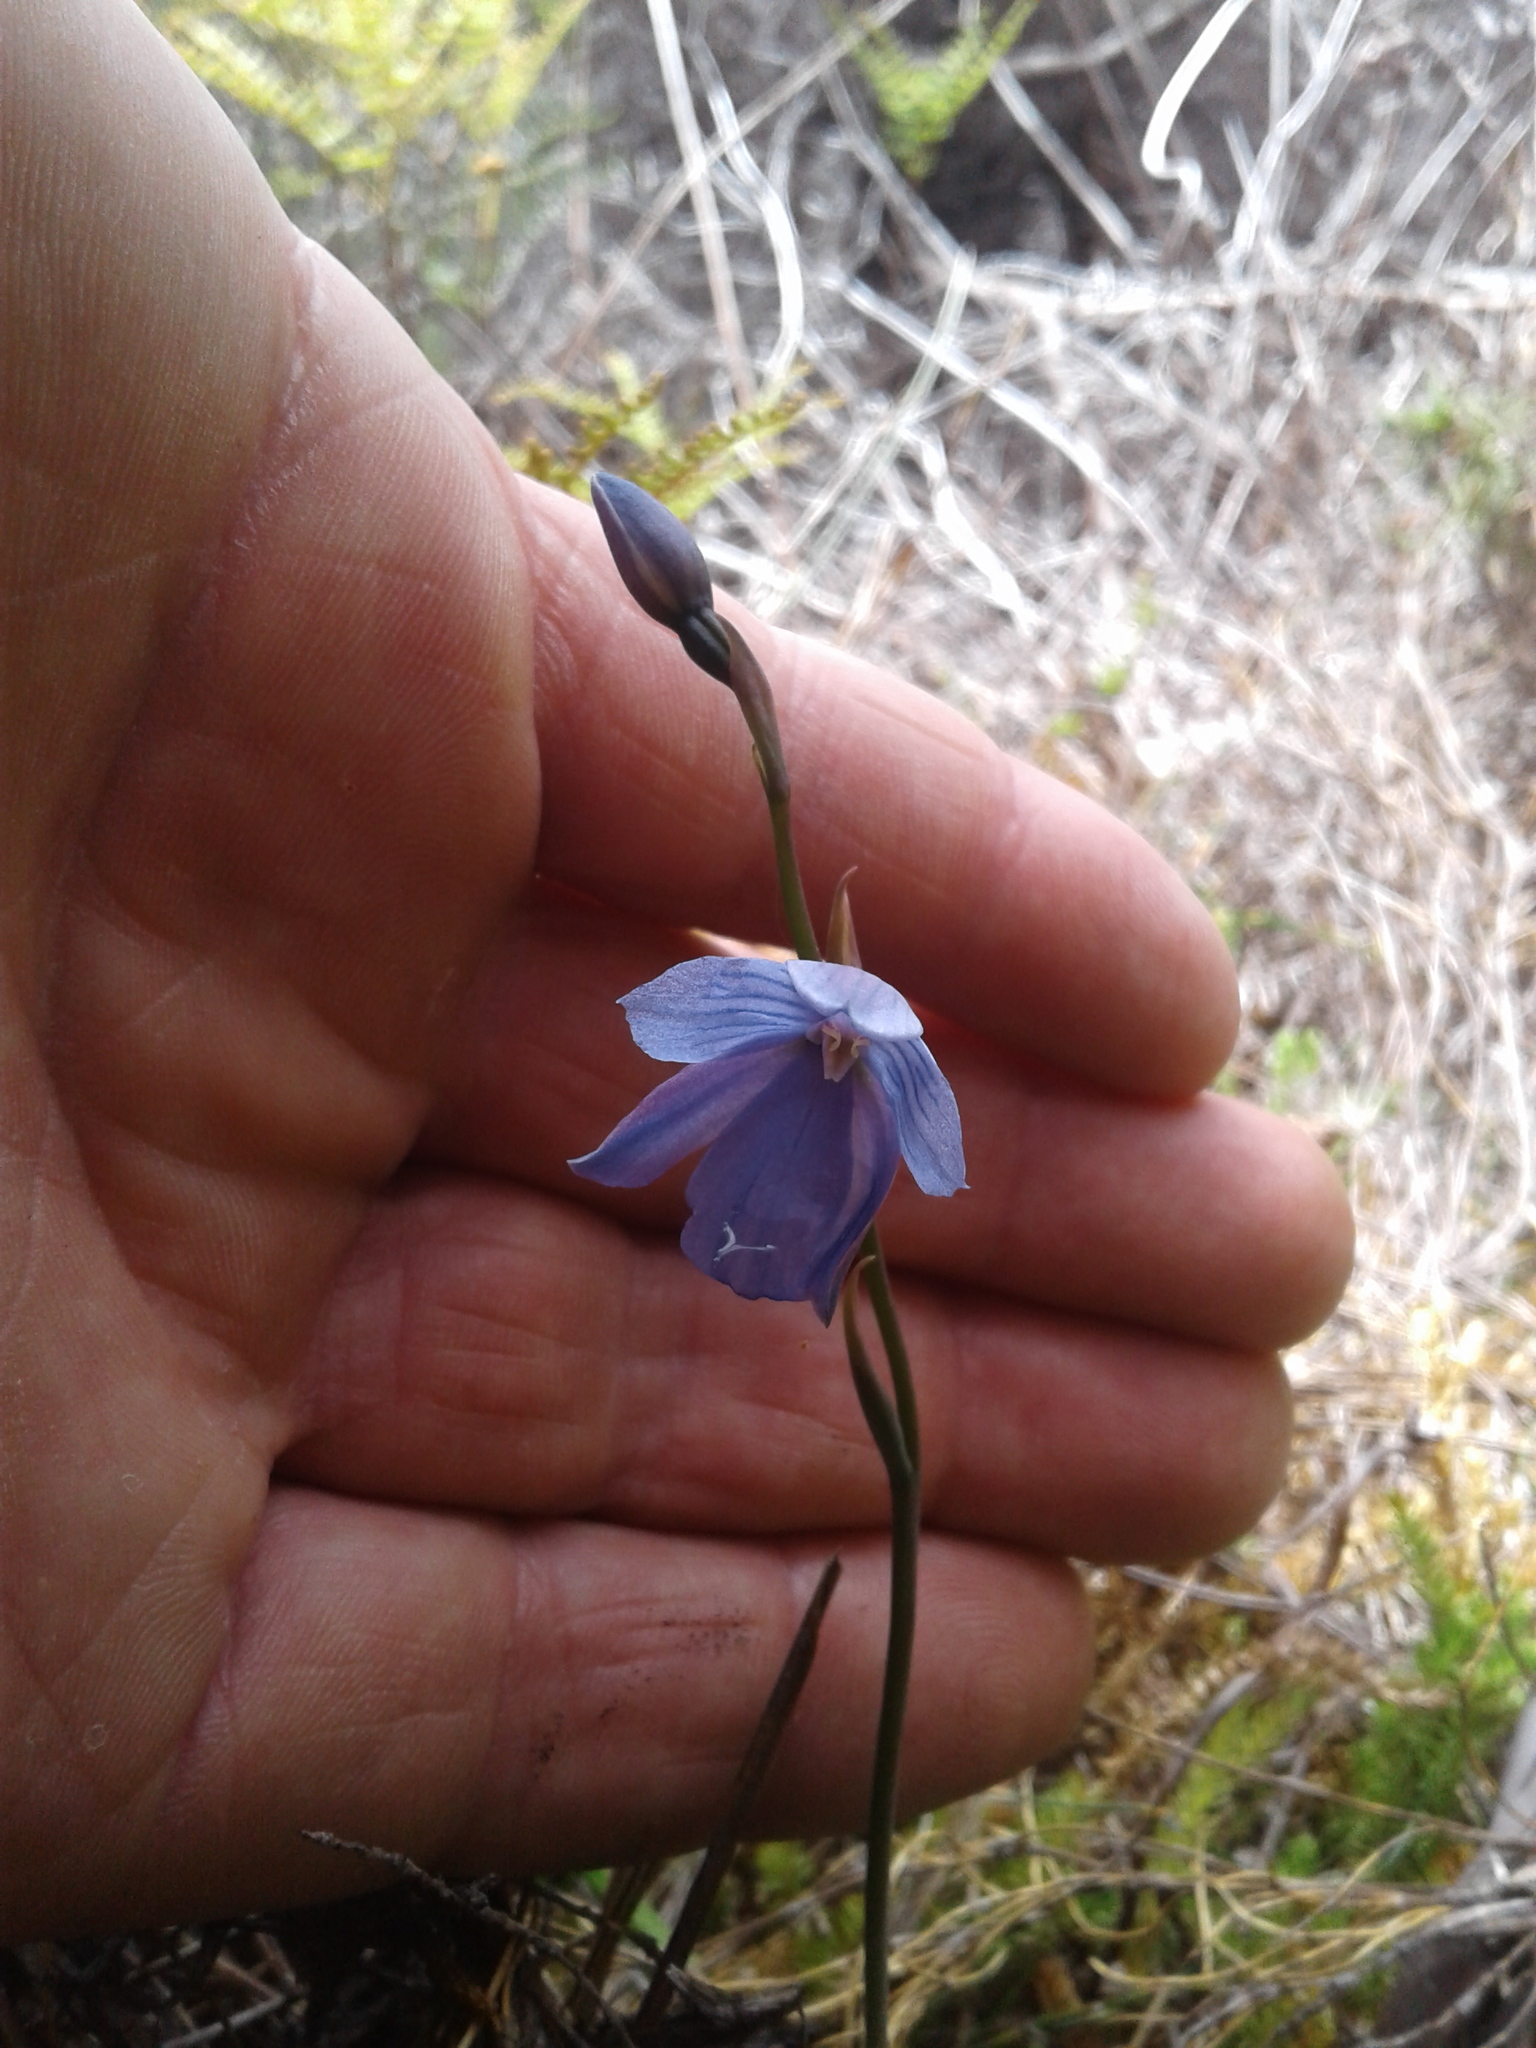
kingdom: Plantae
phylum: Tracheophyta
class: Liliopsida
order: Asparagales
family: Orchidaceae
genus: Thelymitra
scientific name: Thelymitra cyanea
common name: Blue sun-orchid
